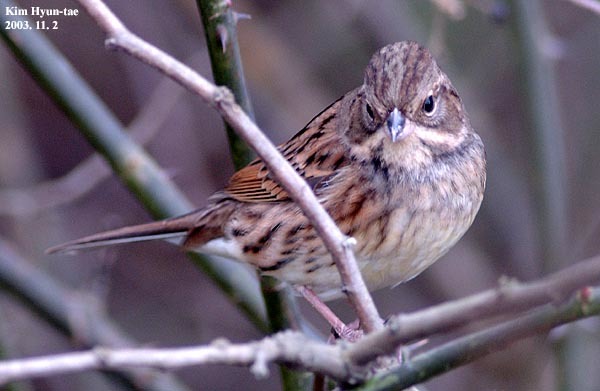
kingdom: Animalia
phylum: Chordata
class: Aves
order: Passeriformes
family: Emberizidae
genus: Emberiza
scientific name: Emberiza spodocephala
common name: Black-faced bunting
